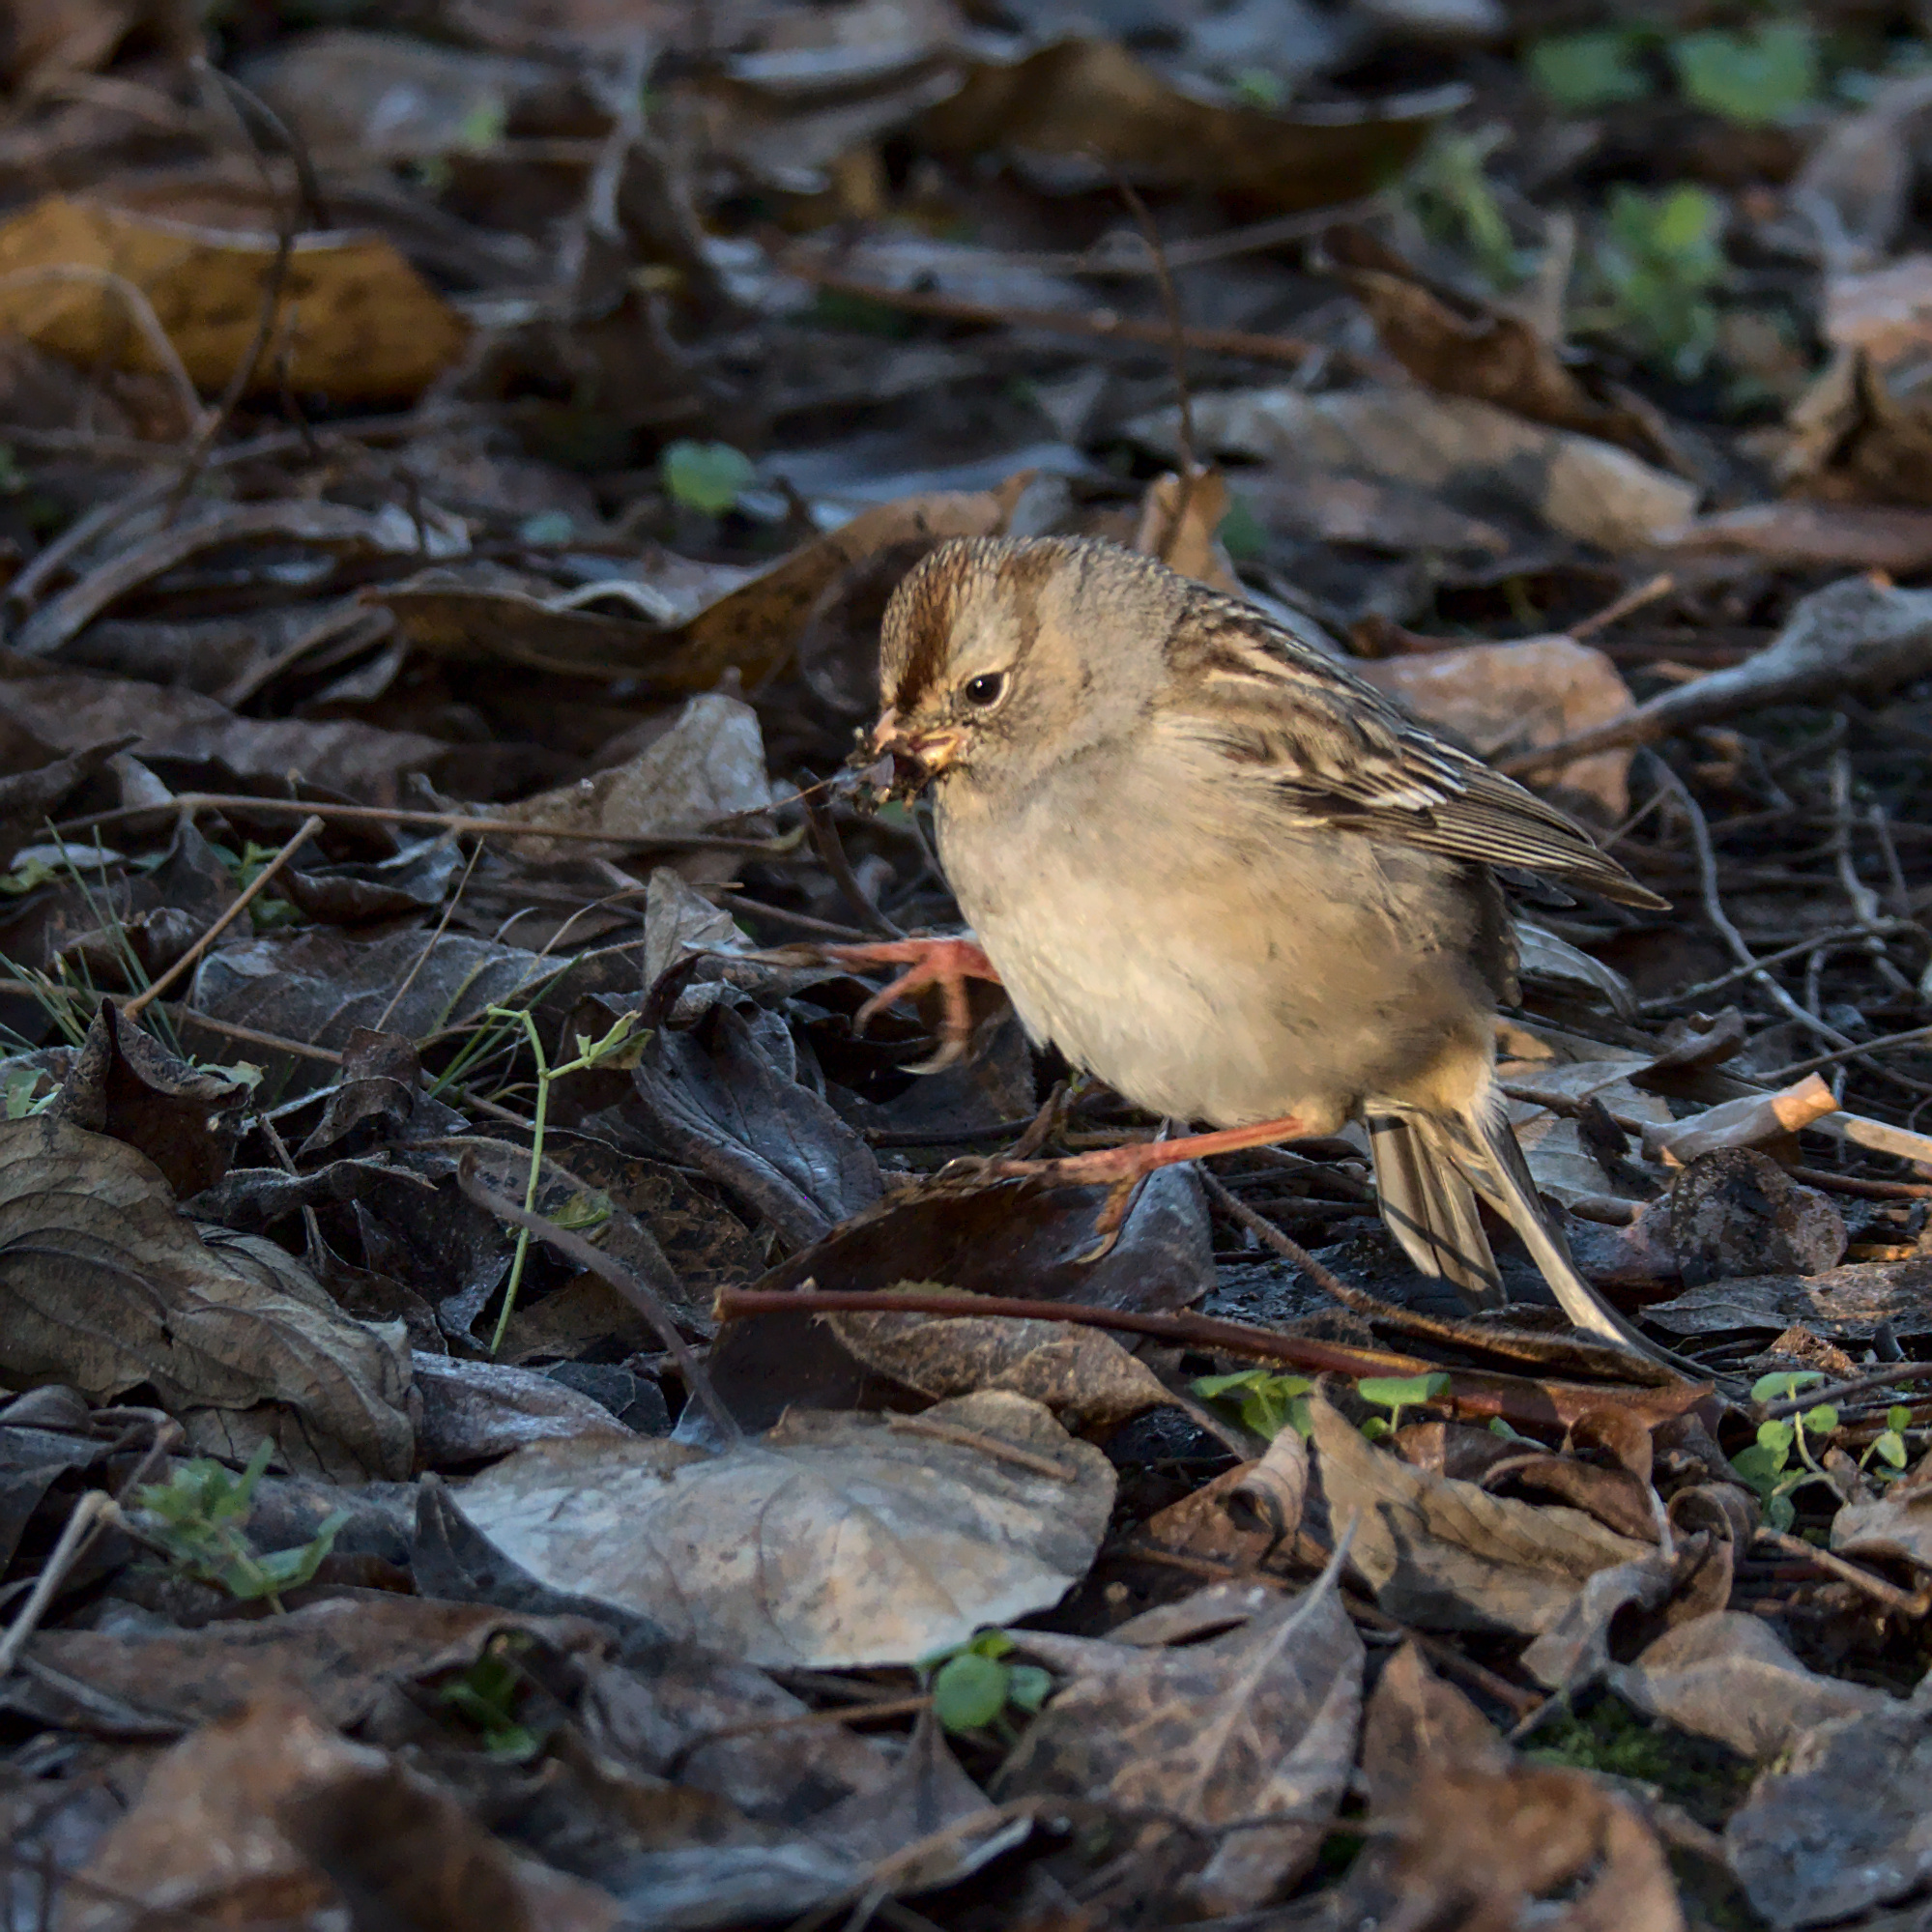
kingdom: Animalia
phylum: Chordata
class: Aves
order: Passeriformes
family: Passerellidae
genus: Zonotrichia
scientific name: Zonotrichia atricapilla
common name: Golden-crowned sparrow
